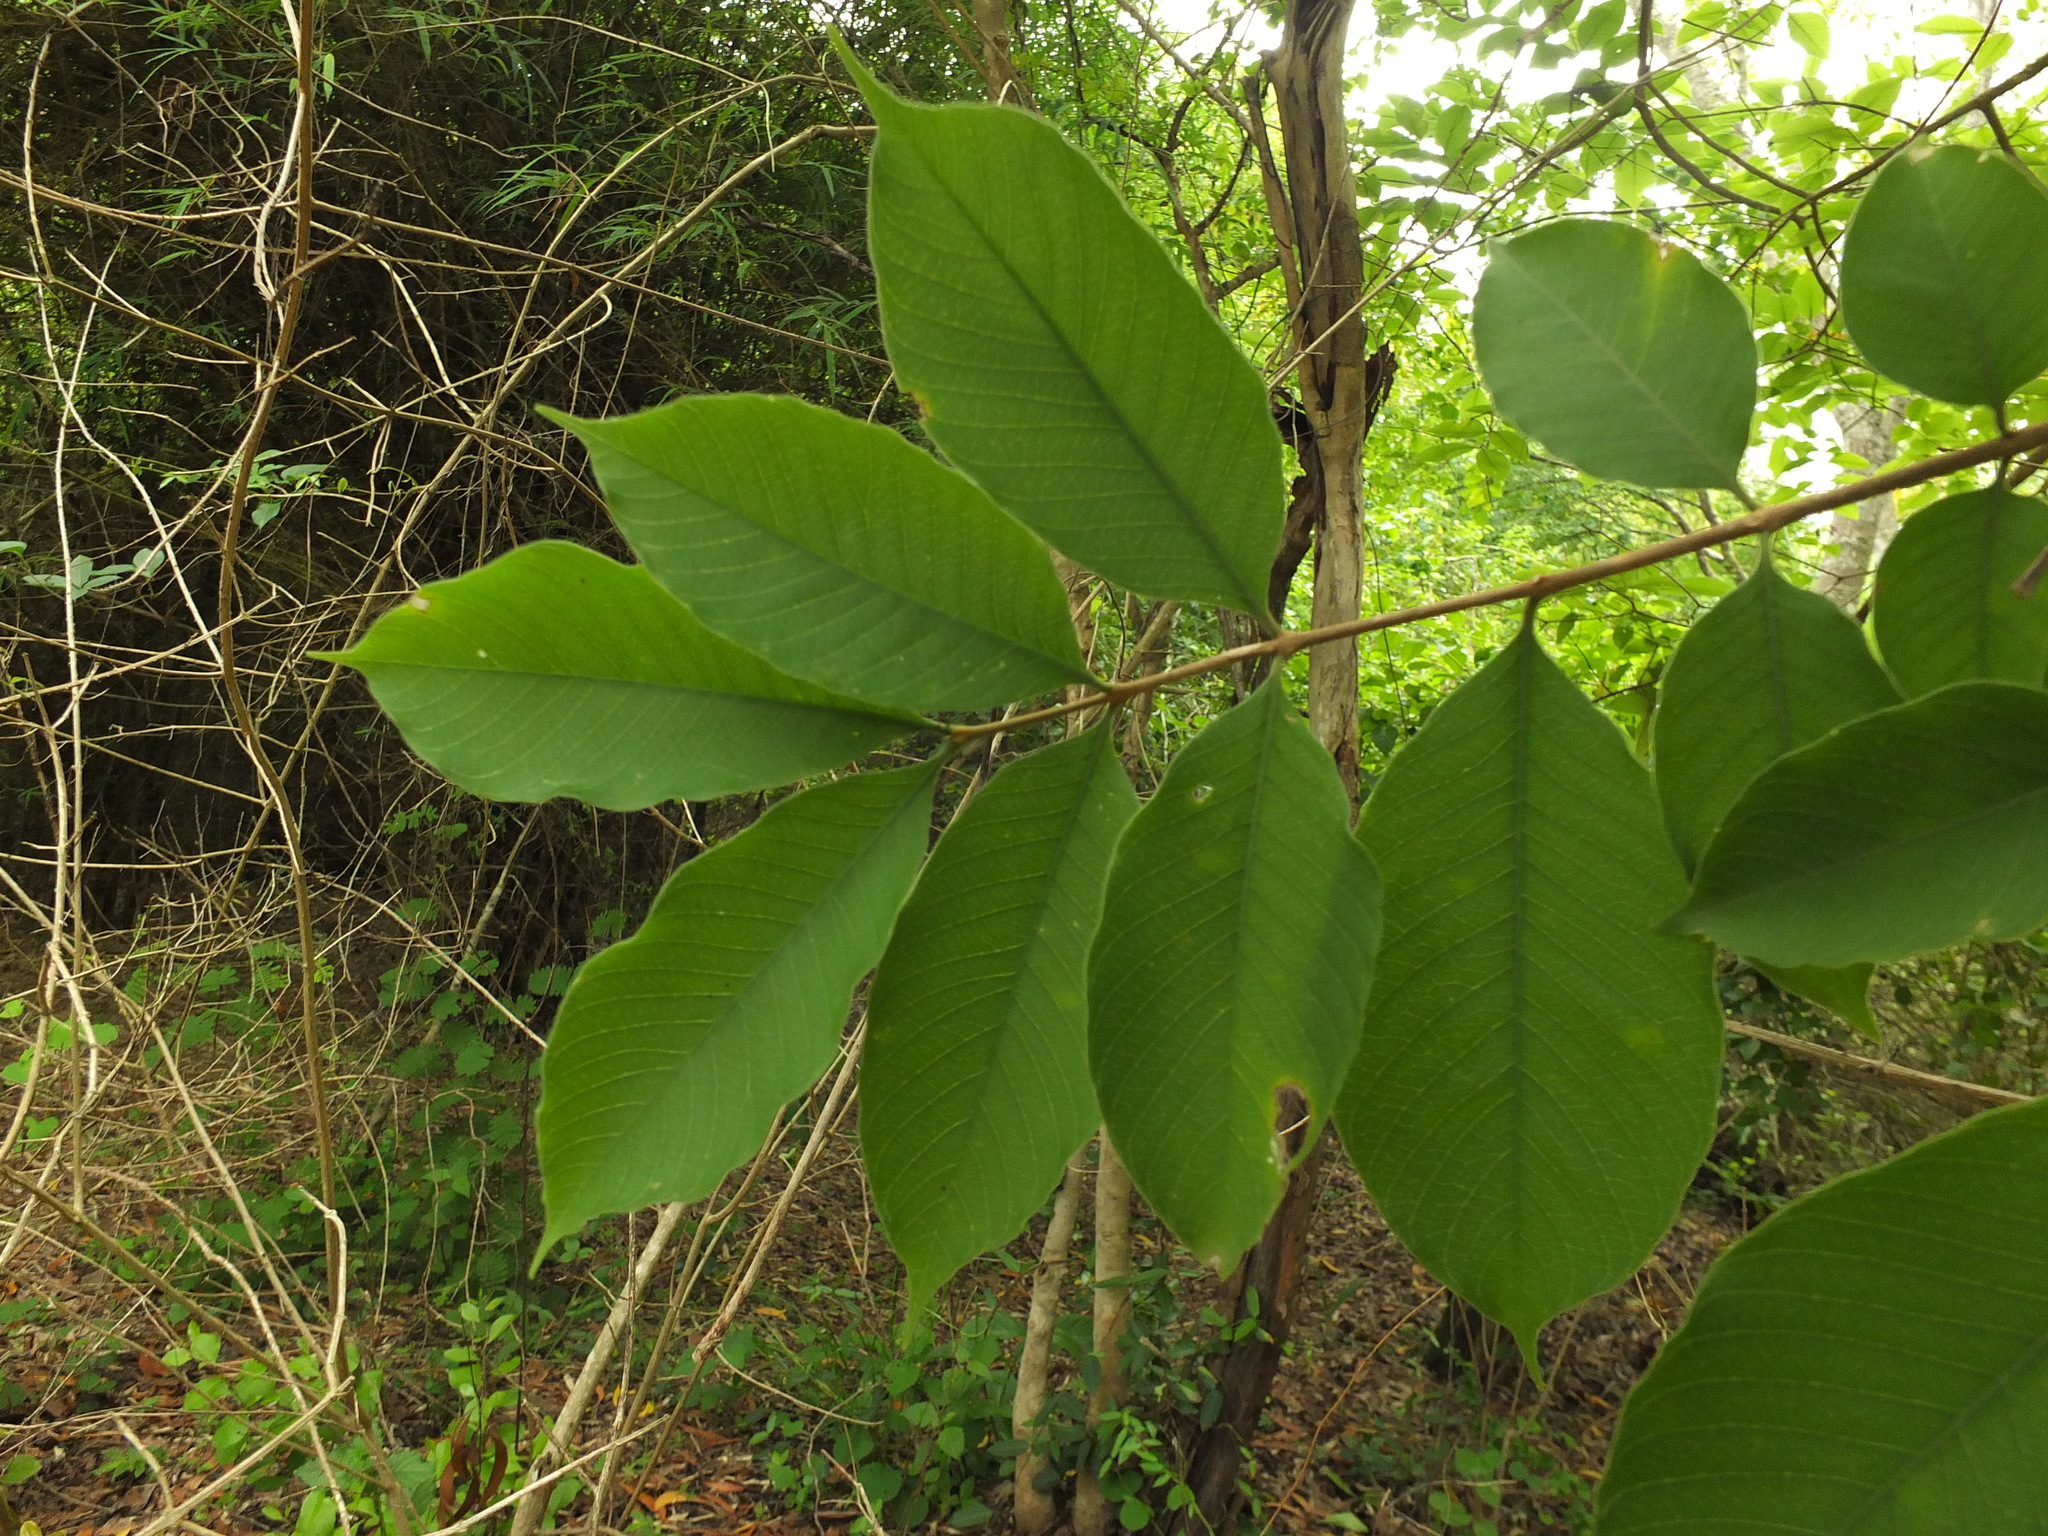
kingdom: Plantae
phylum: Tracheophyta
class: Magnoliopsida
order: Gentianales
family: Apocynaceae
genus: Wrightia
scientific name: Wrightia arborea
